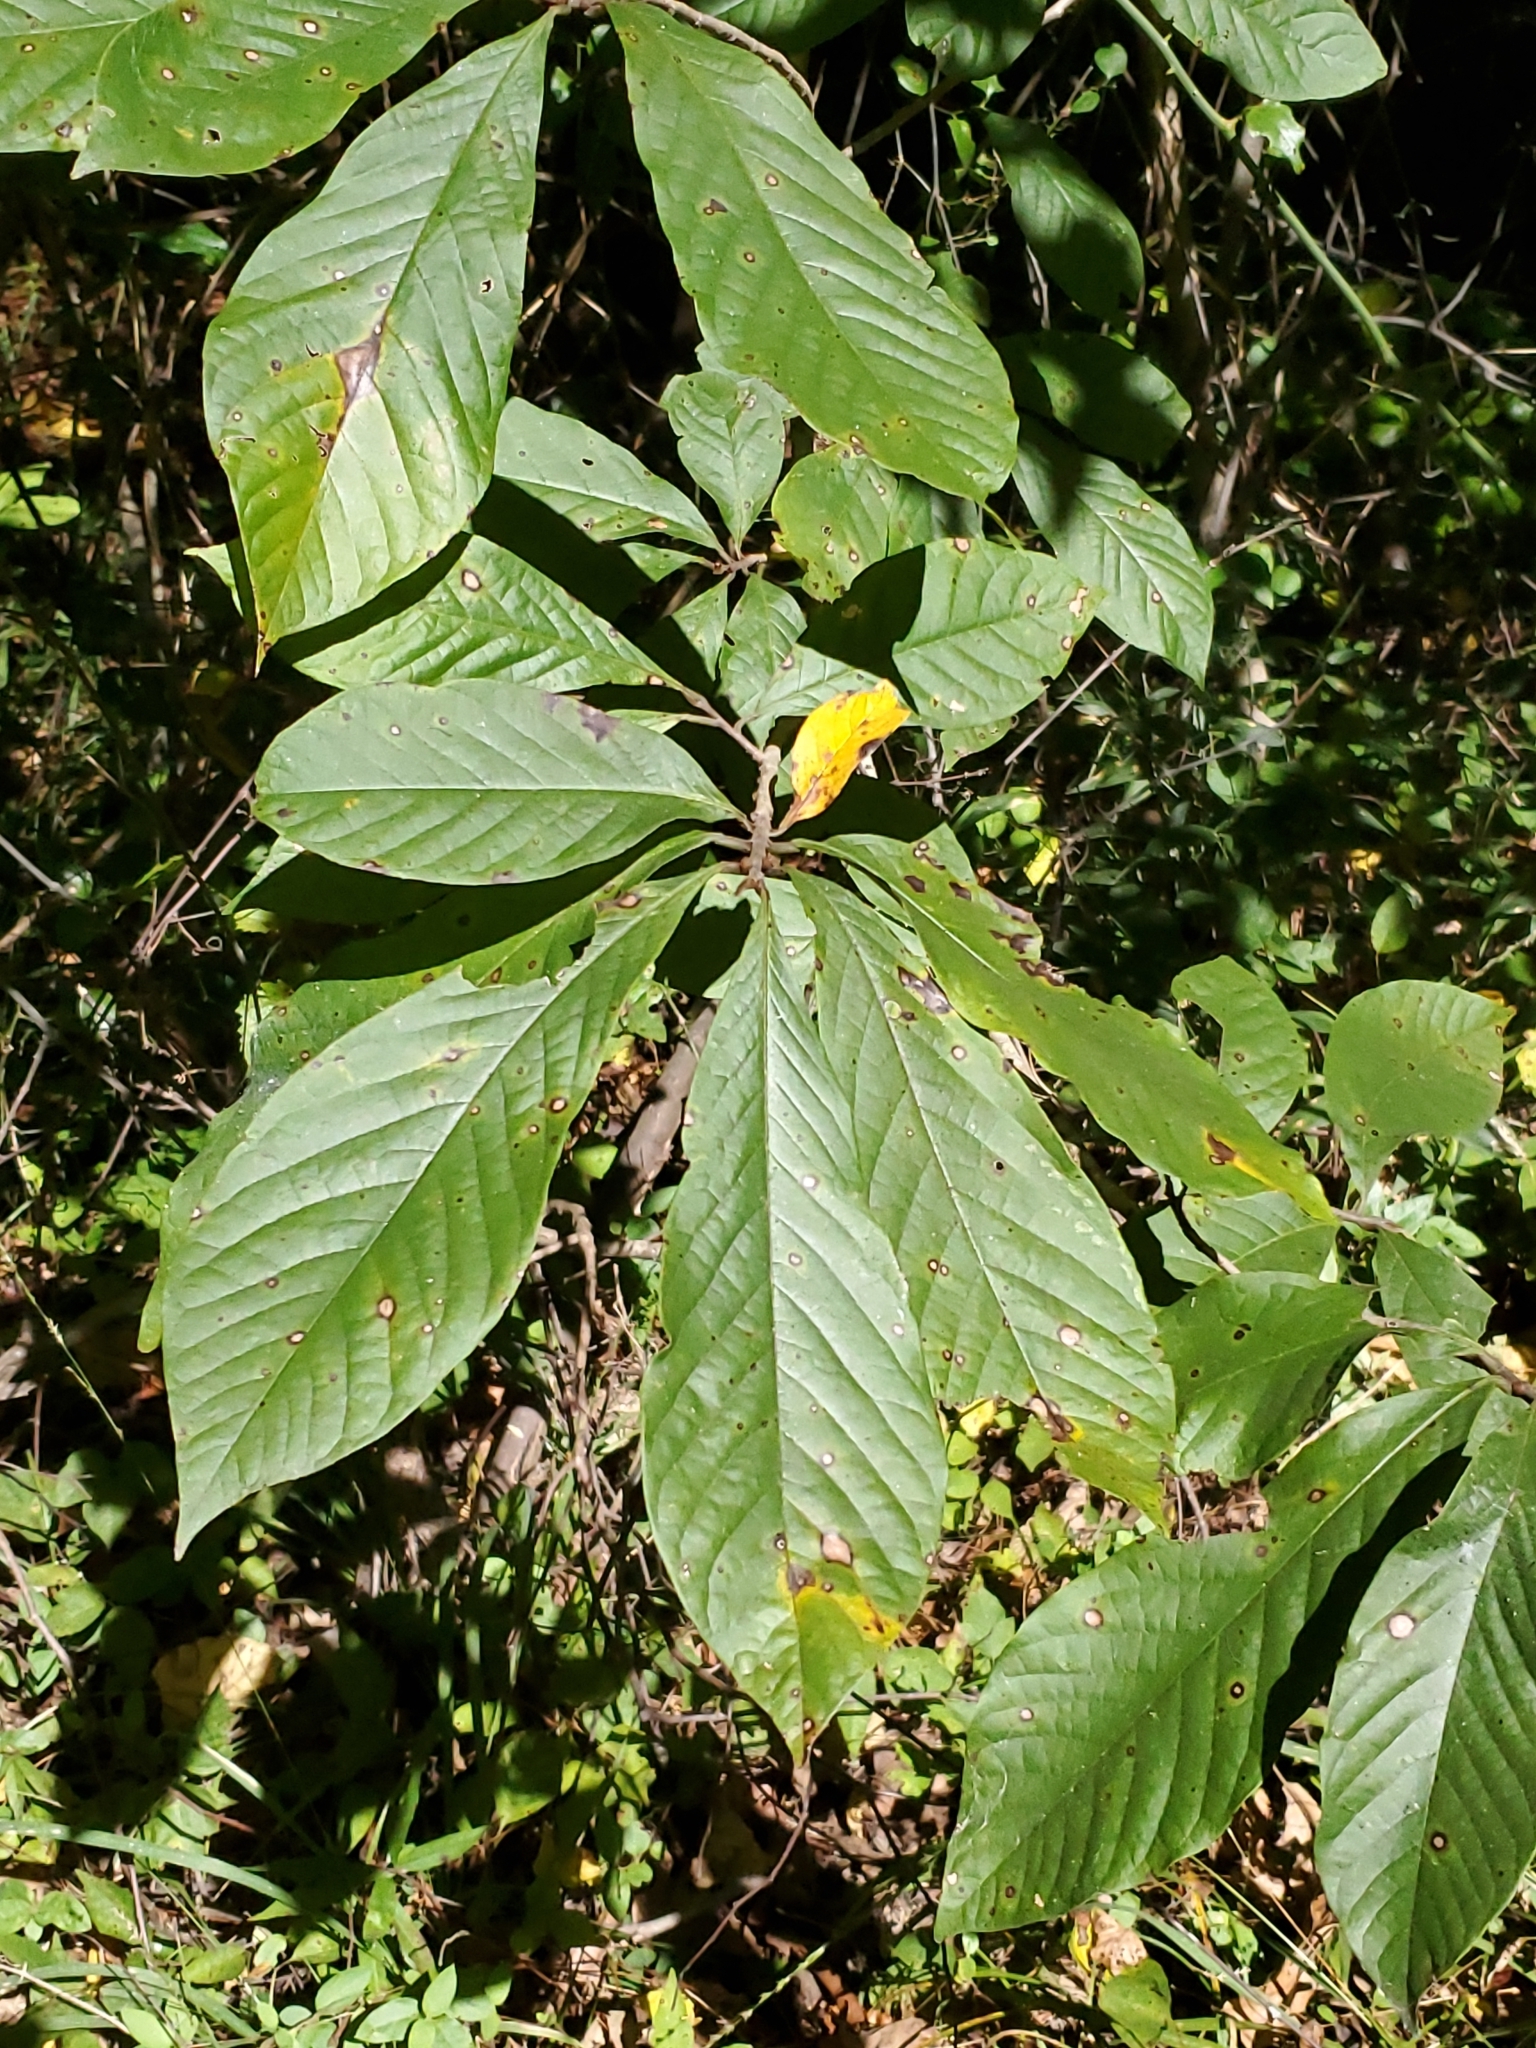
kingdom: Plantae
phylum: Tracheophyta
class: Magnoliopsida
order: Magnoliales
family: Annonaceae
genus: Asimina
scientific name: Asimina triloba
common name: Dog-banana
